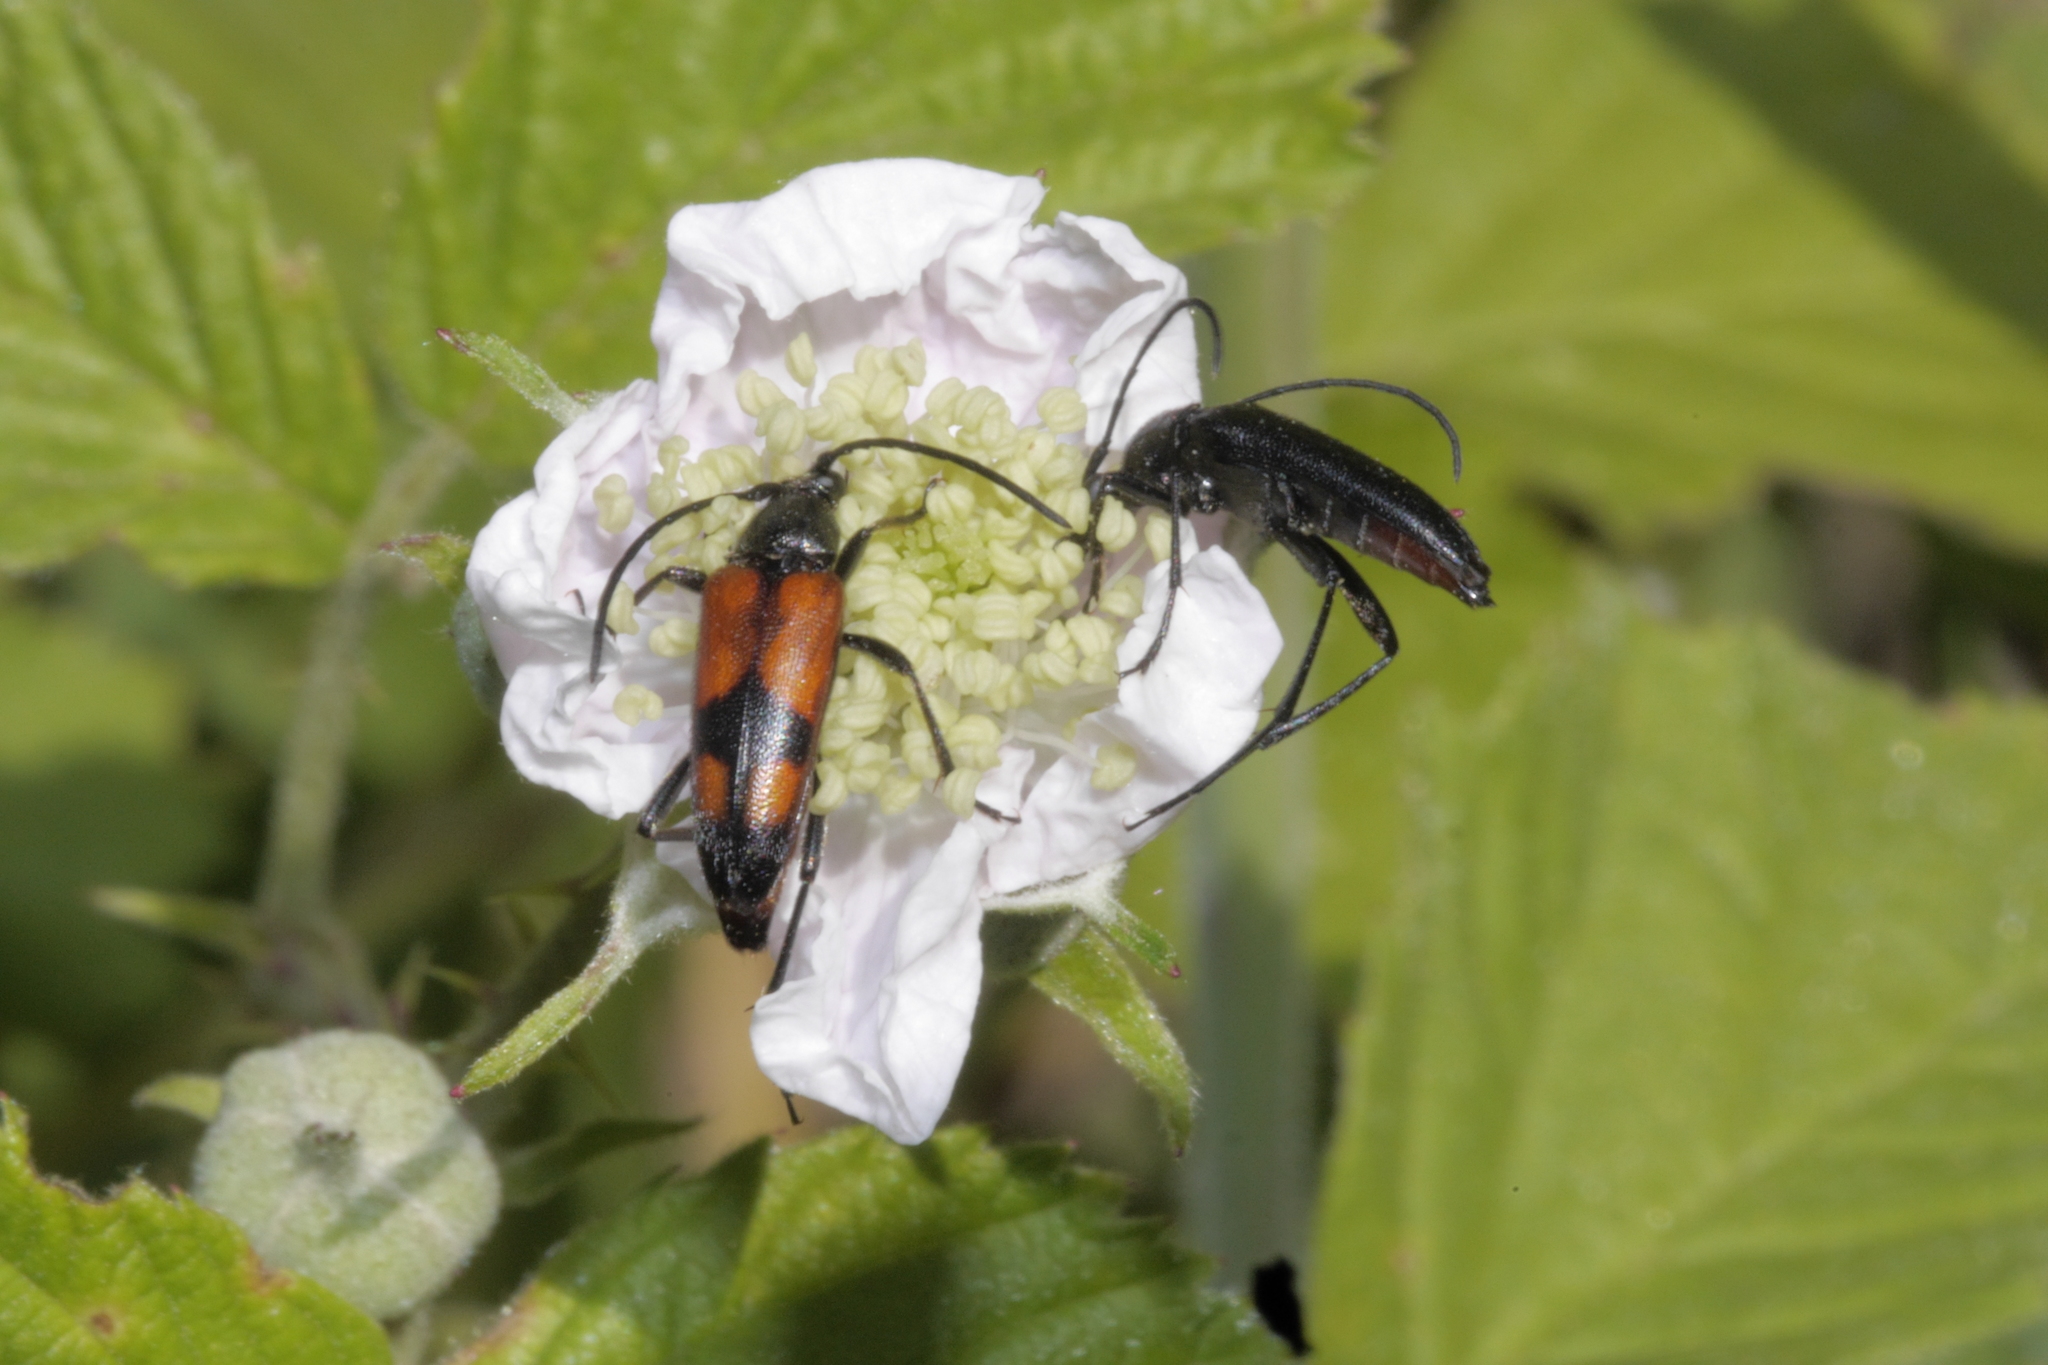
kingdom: Animalia
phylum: Arthropoda
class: Insecta
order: Coleoptera
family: Cerambycidae
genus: Stenurella
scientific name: Stenurella bifasciata
